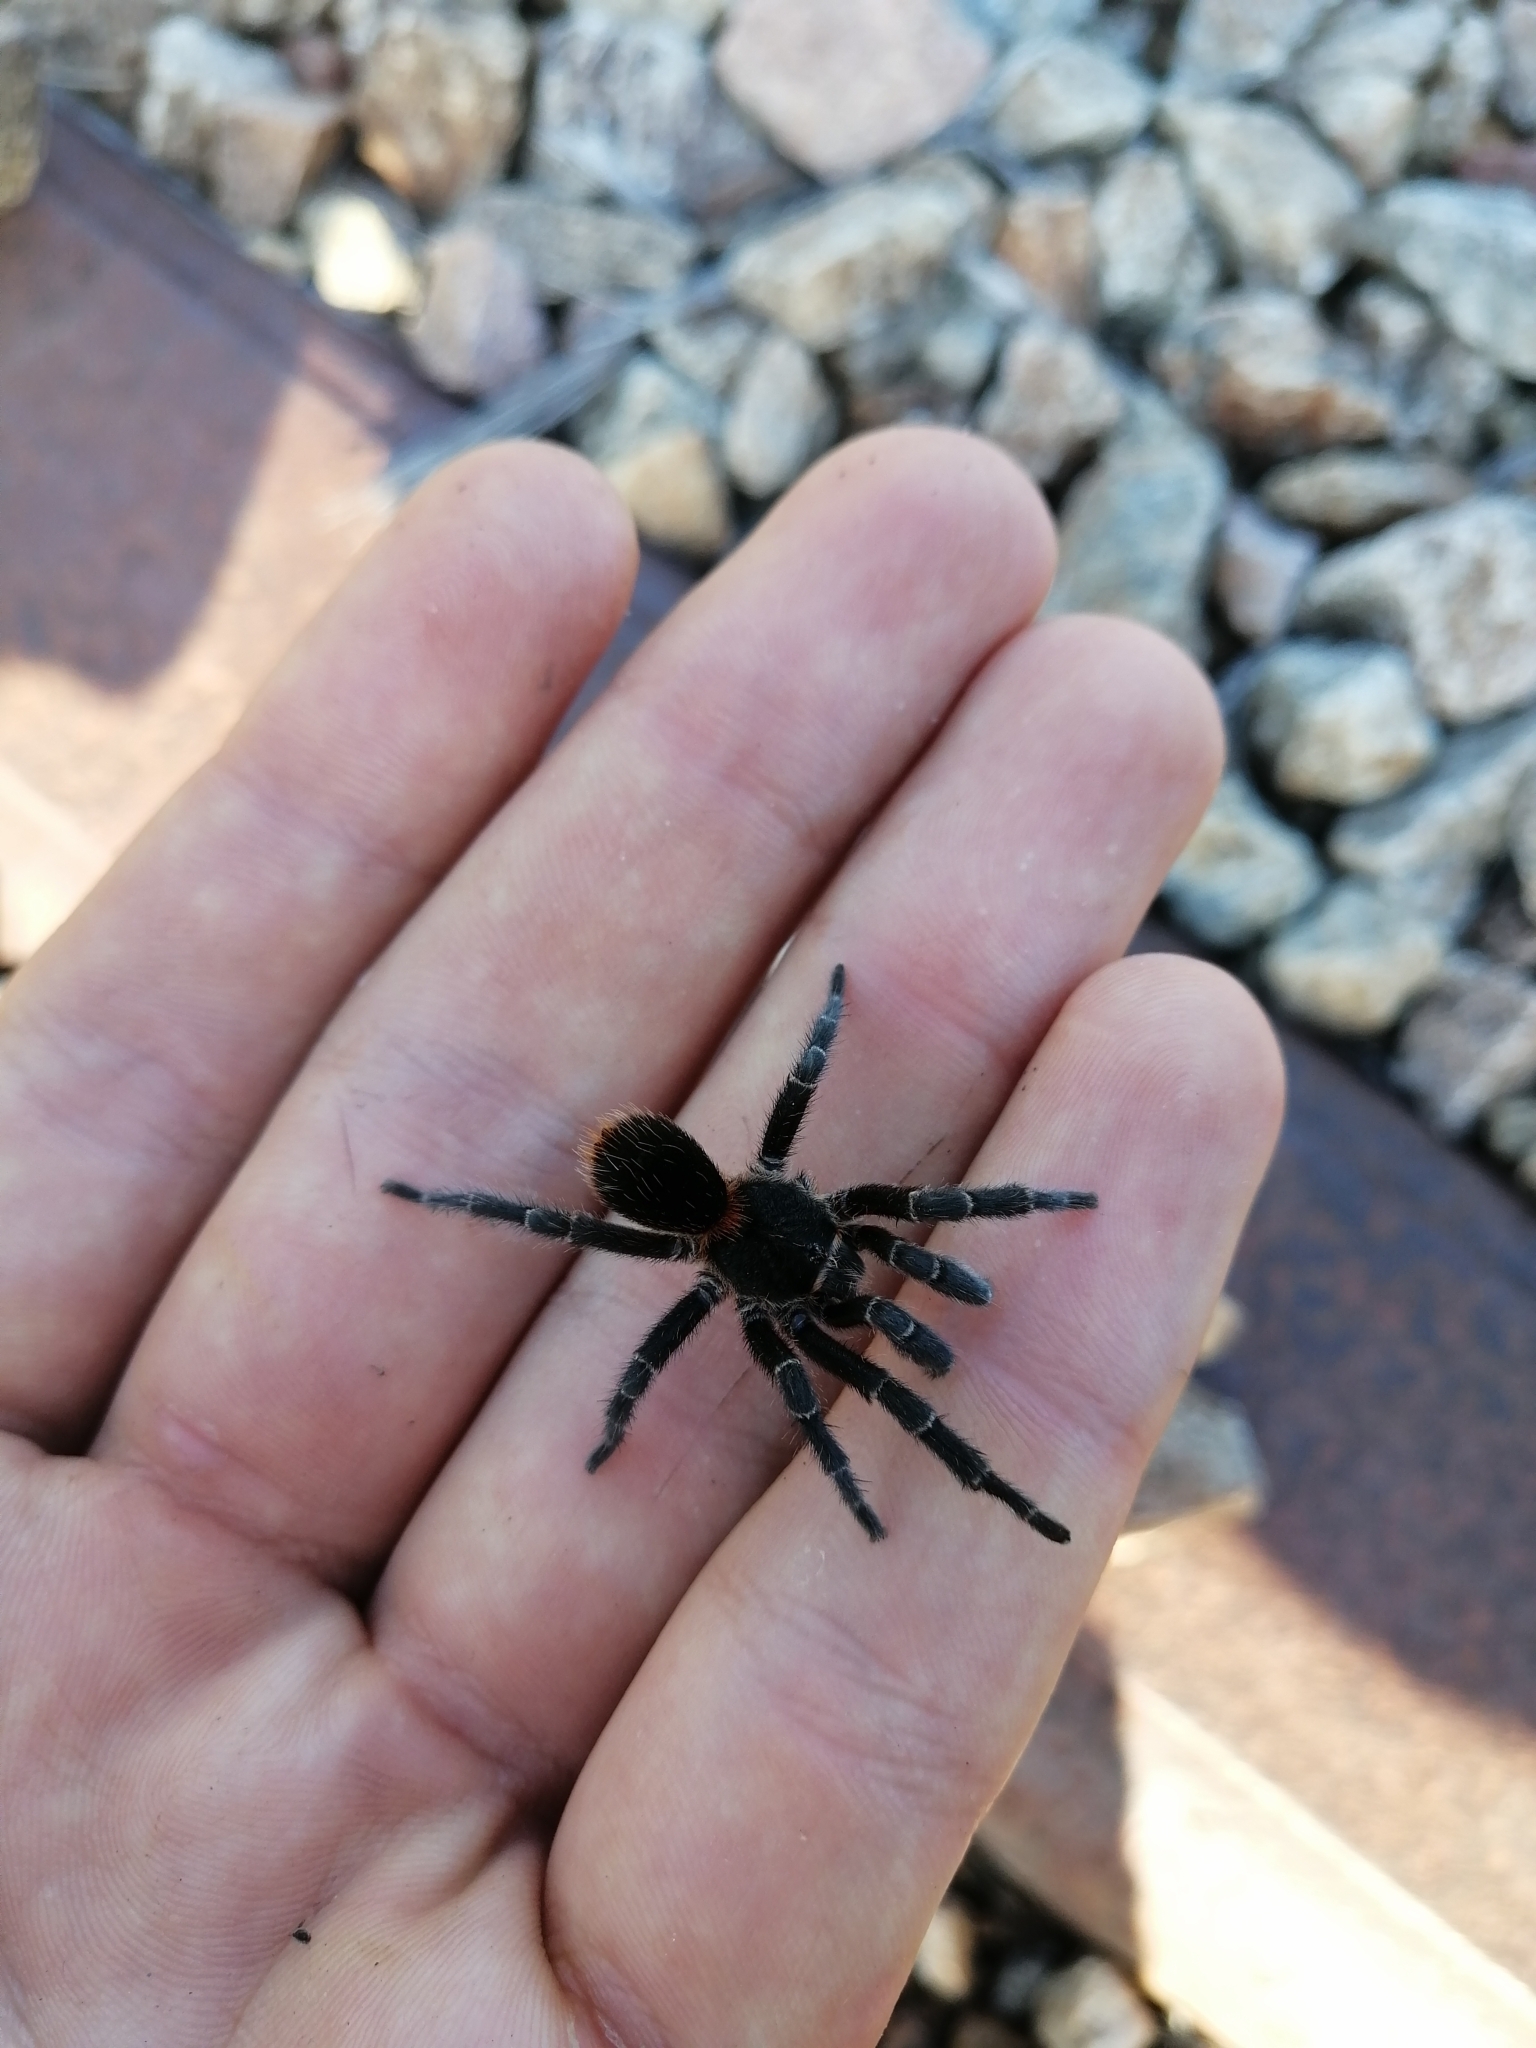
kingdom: Animalia
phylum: Arthropoda
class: Arachnida
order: Araneae
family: Theraphosidae
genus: Homoeomma
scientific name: Homoeomma uruguayense
